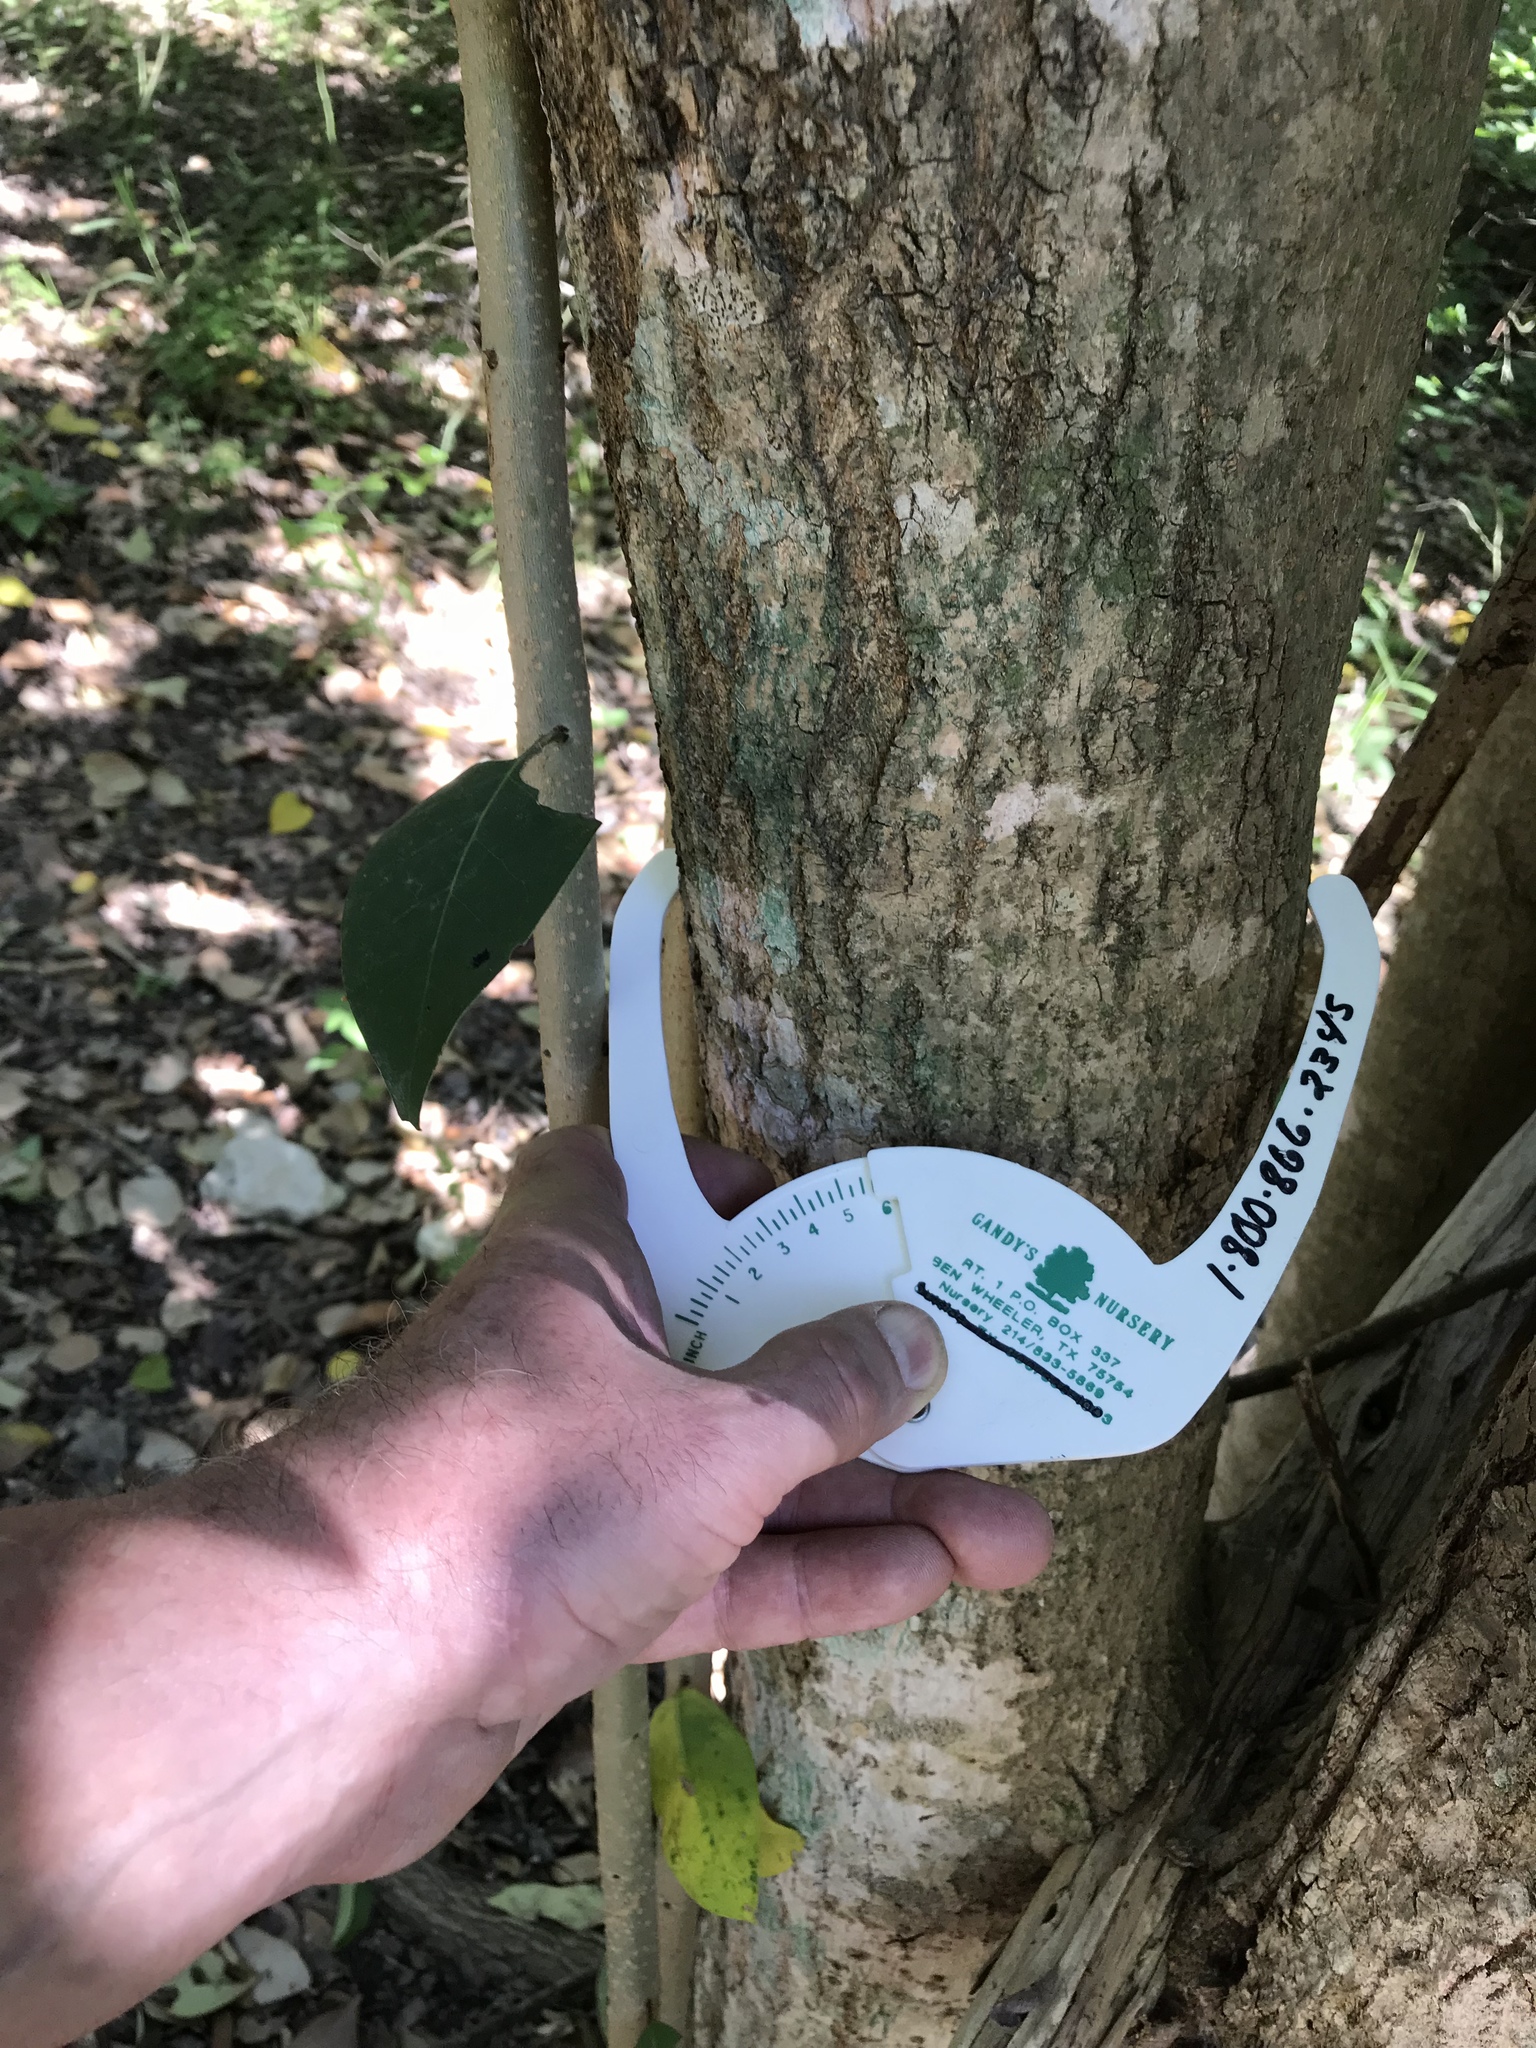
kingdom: Plantae
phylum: Tracheophyta
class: Magnoliopsida
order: Lamiales
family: Oleaceae
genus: Ligustrum
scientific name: Ligustrum lucidum
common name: Glossy privet
